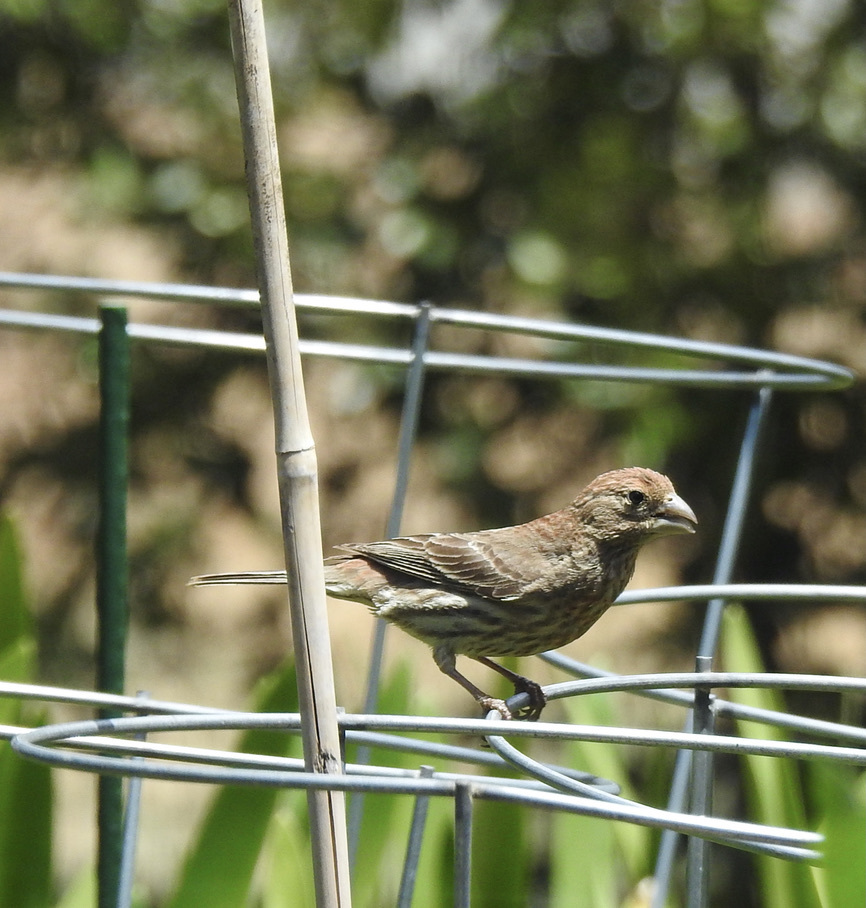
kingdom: Animalia
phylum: Chordata
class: Aves
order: Passeriformes
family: Fringillidae
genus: Haemorhous
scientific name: Haemorhous mexicanus
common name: House finch
